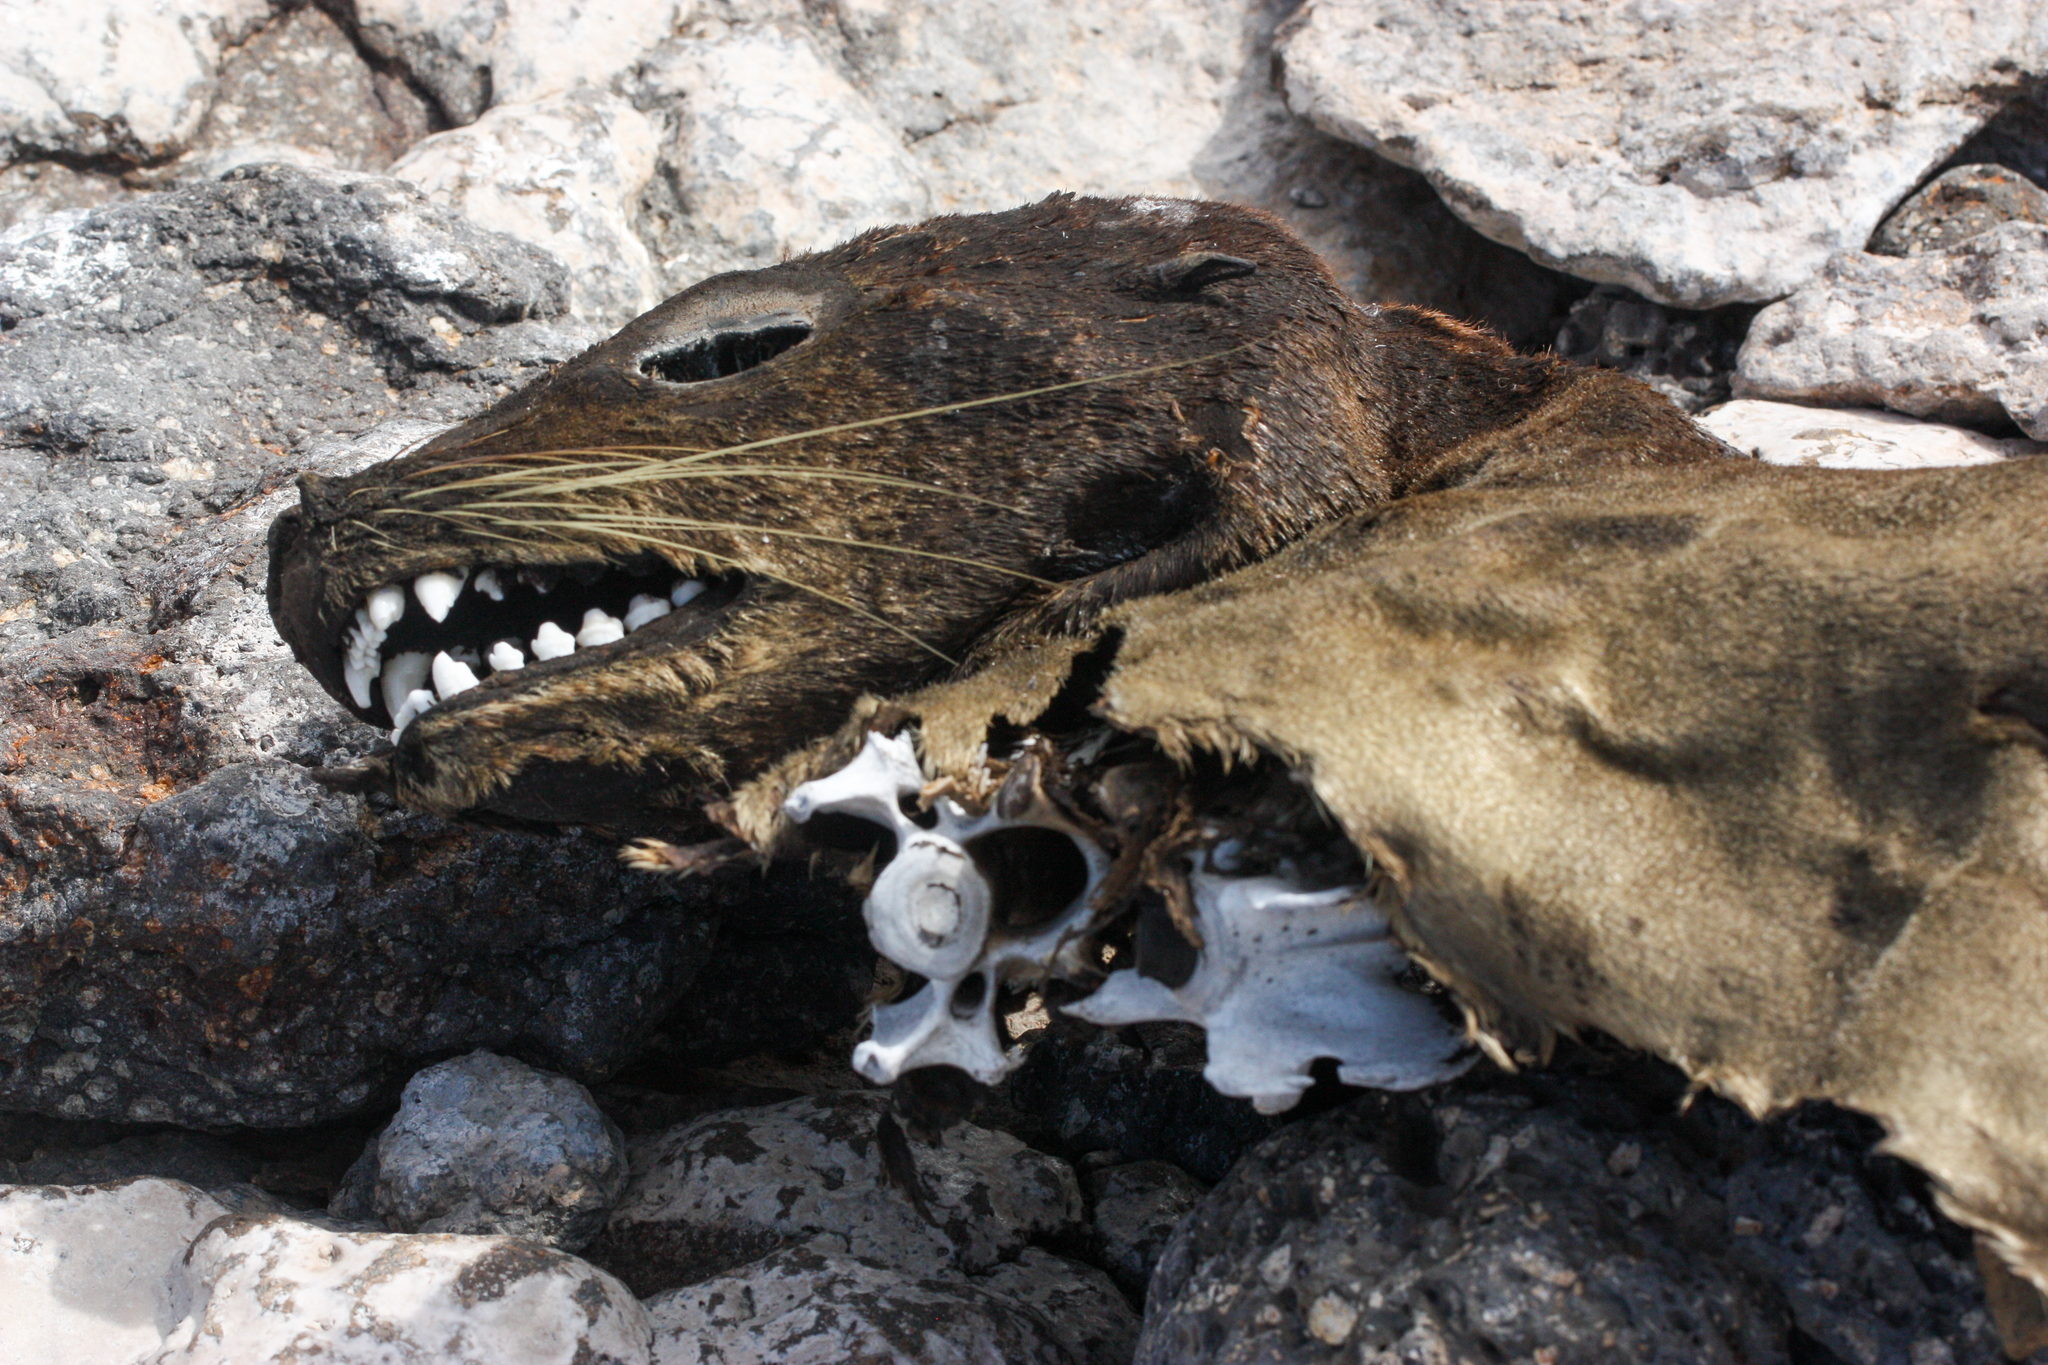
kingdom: Animalia
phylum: Chordata
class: Mammalia
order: Carnivora
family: Otariidae
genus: Zalophus
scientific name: Zalophus wollebaeki
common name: Galapagos sea lion
